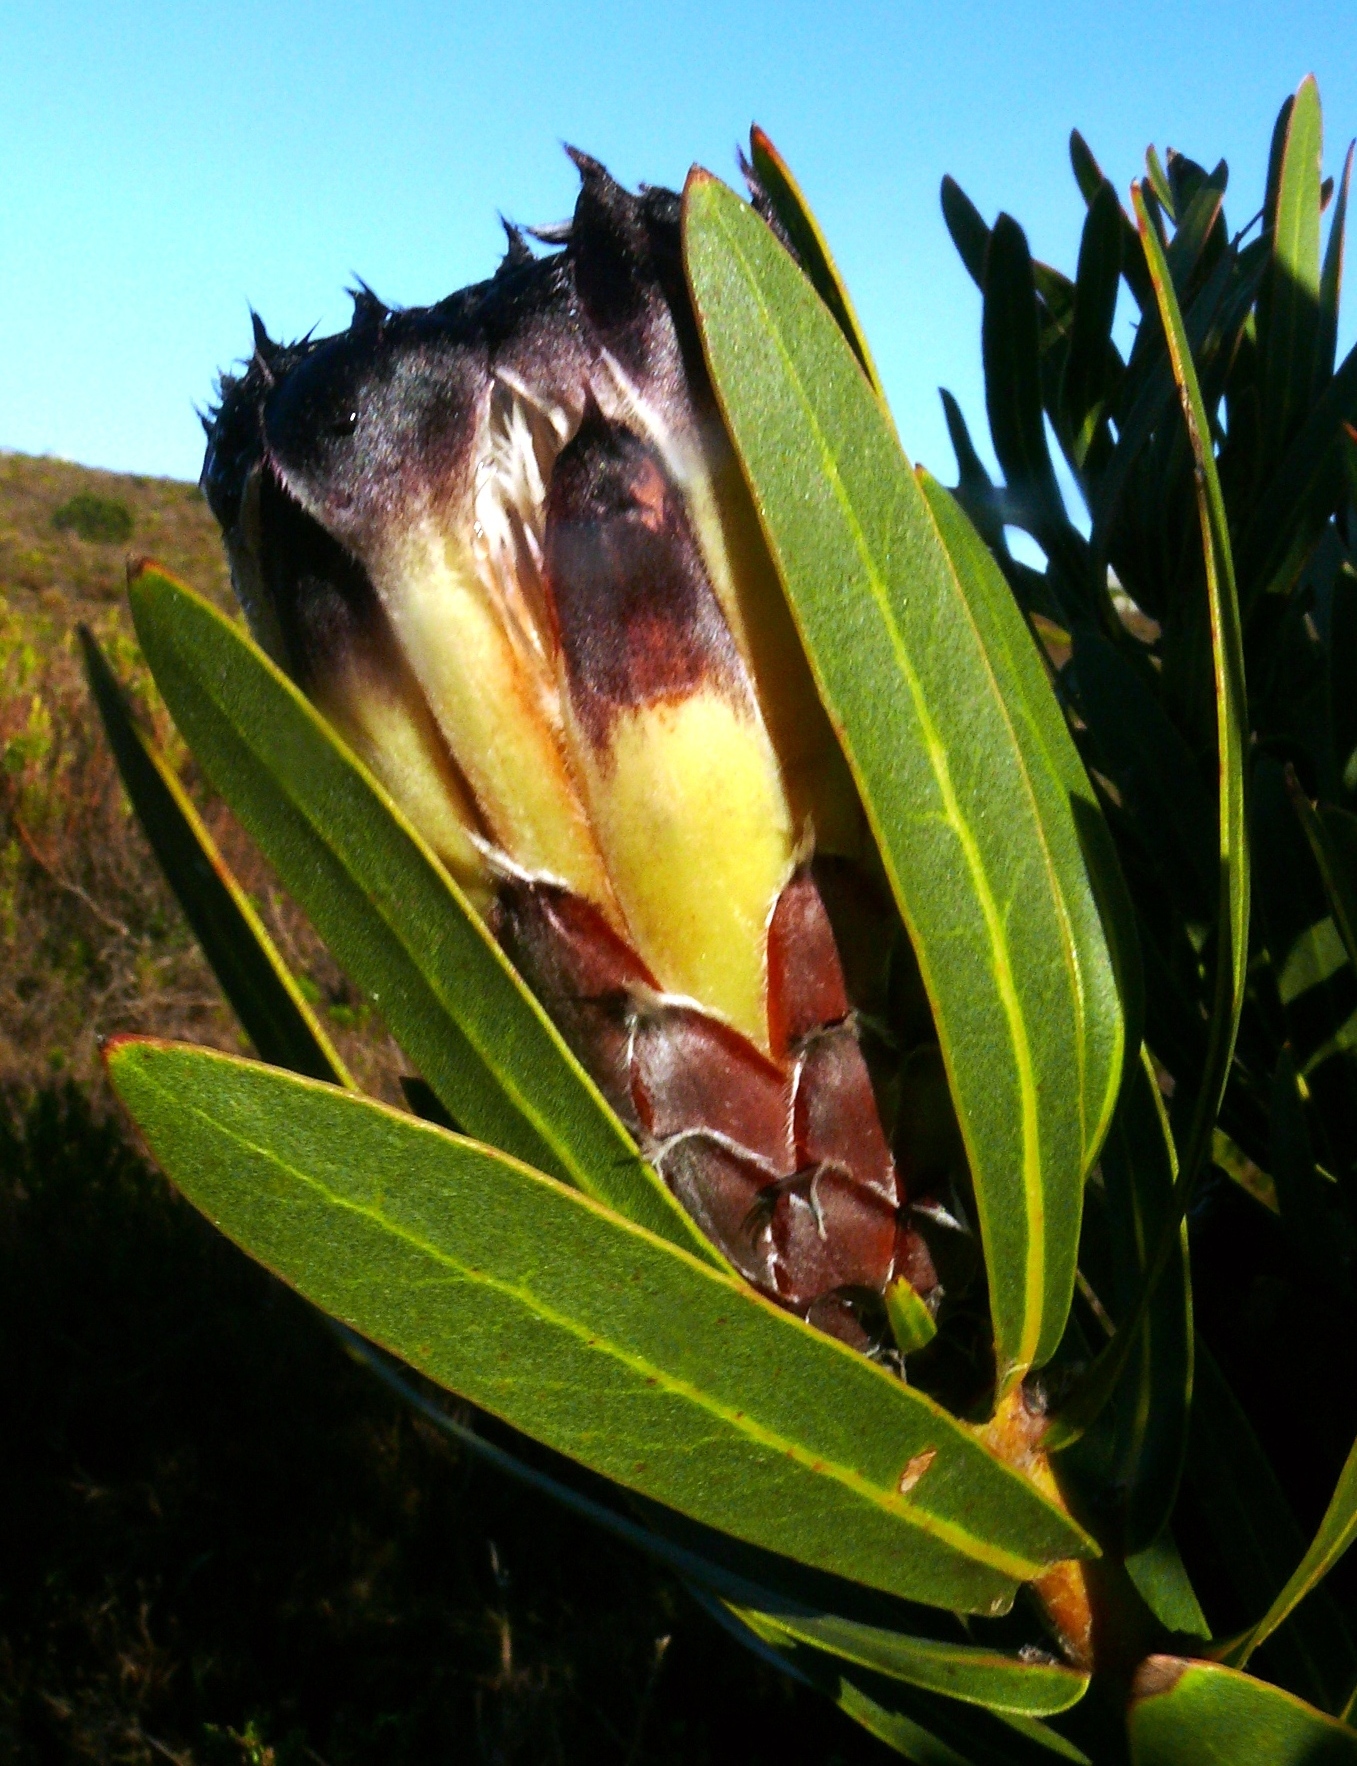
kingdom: Plantae
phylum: Tracheophyta
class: Magnoliopsida
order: Proteales
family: Proteaceae
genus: Protea
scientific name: Protea lepidocarpodendron
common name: Black-bearded protea
